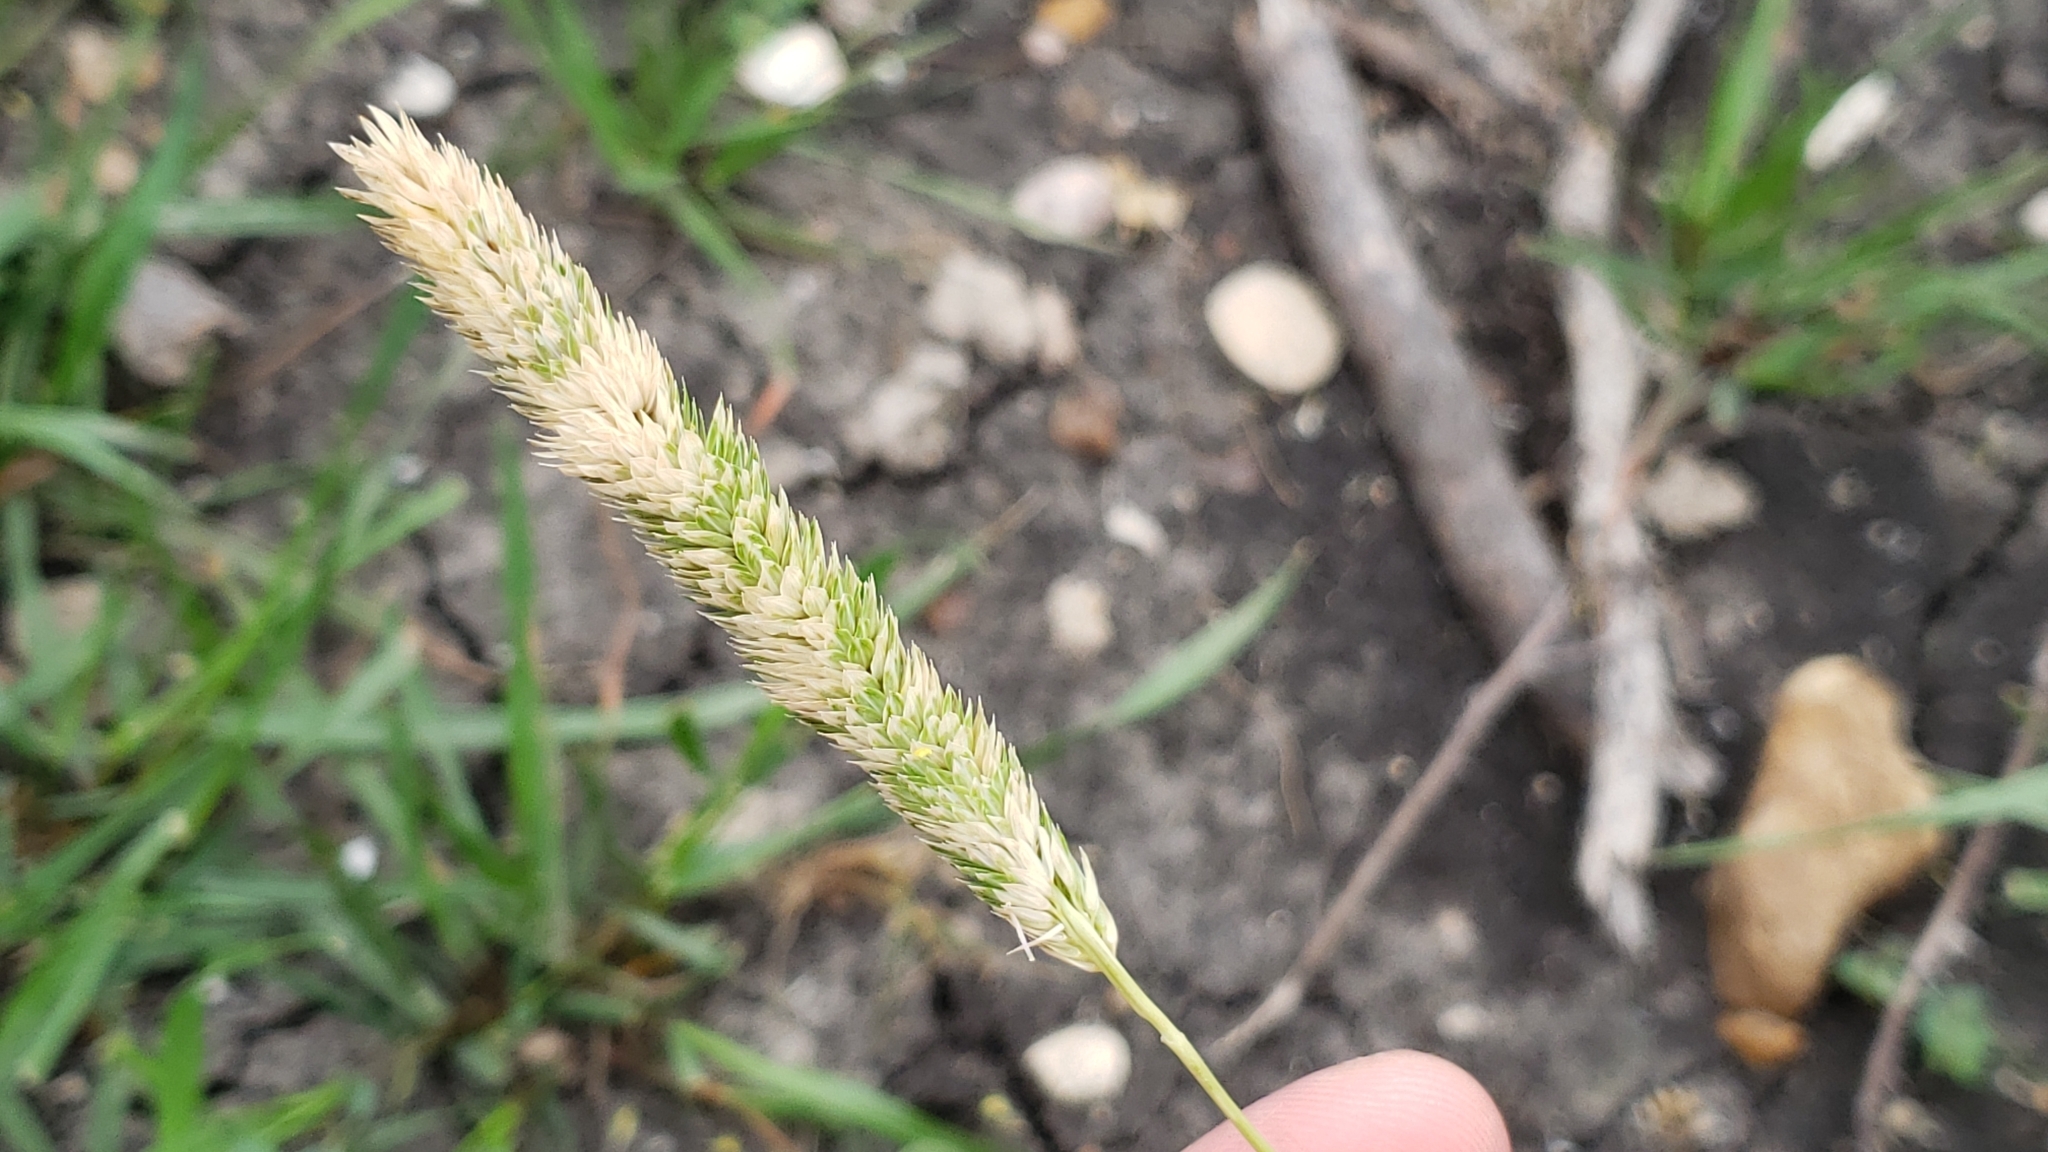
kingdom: Plantae
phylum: Tracheophyta
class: Liliopsida
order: Poales
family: Poaceae
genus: Phalaris
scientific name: Phalaris caroliniana
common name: May grass
